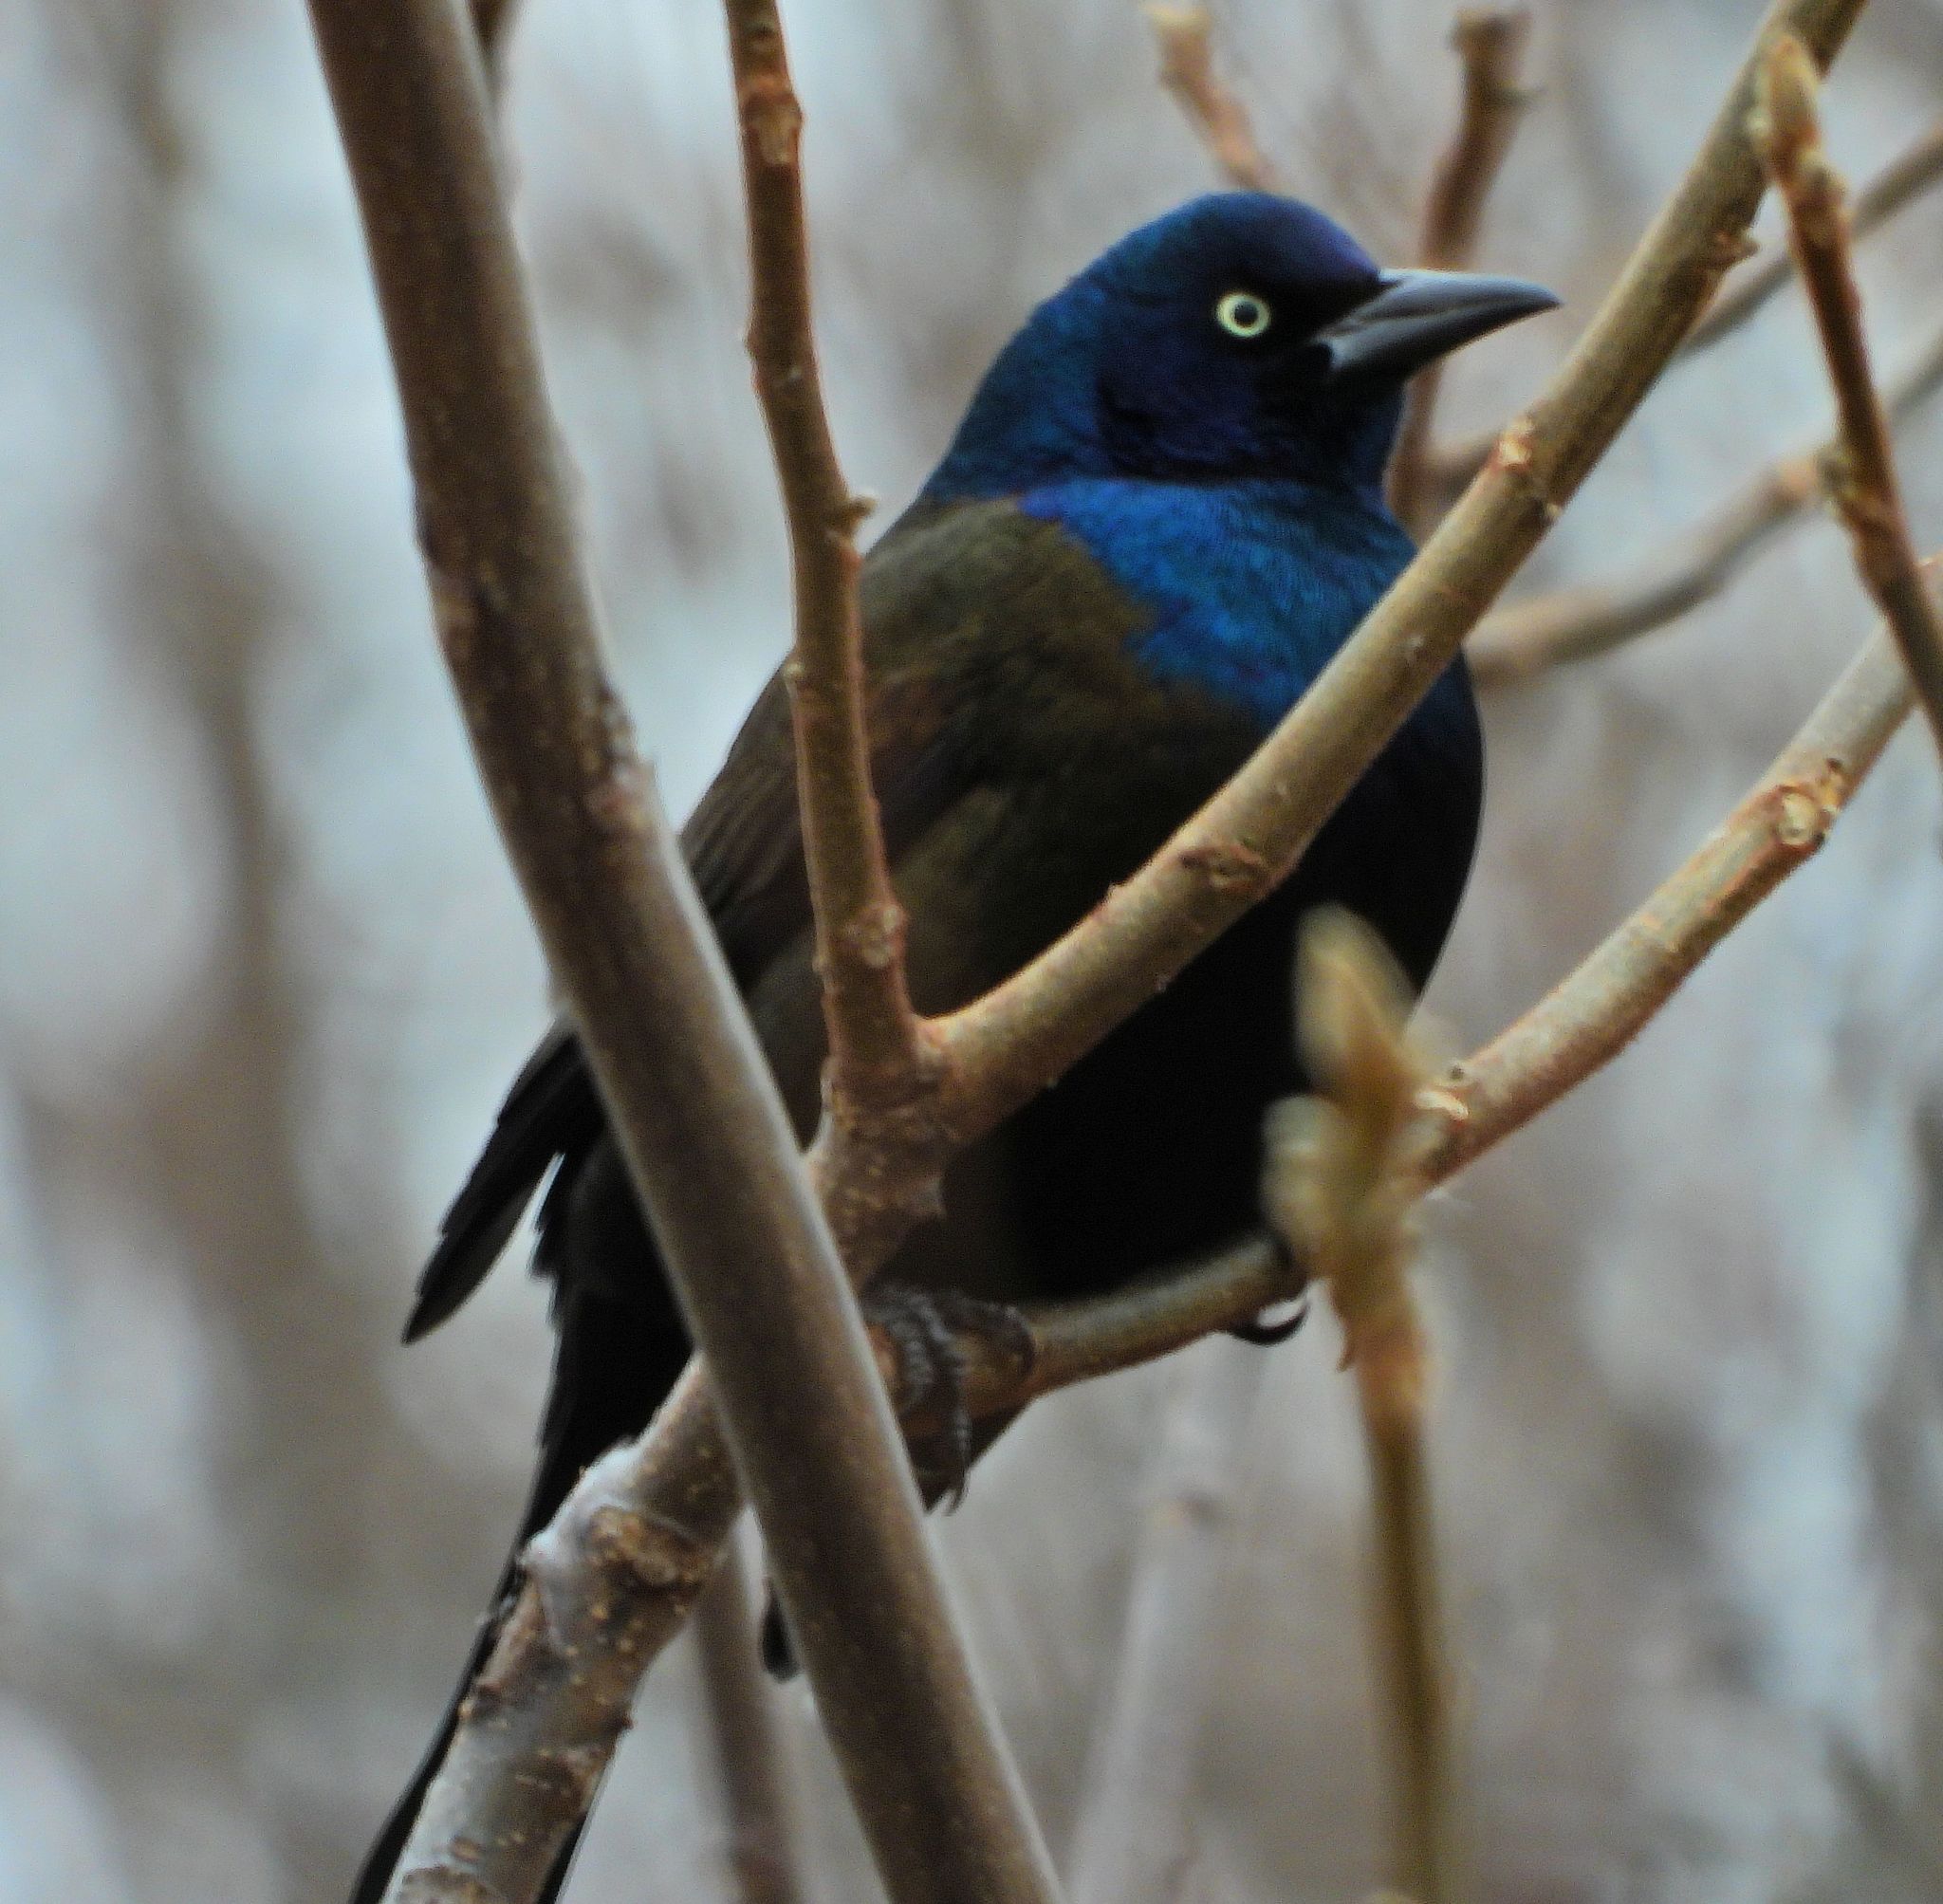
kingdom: Animalia
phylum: Chordata
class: Aves
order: Passeriformes
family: Icteridae
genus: Quiscalus
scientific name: Quiscalus quiscula
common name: Common grackle
